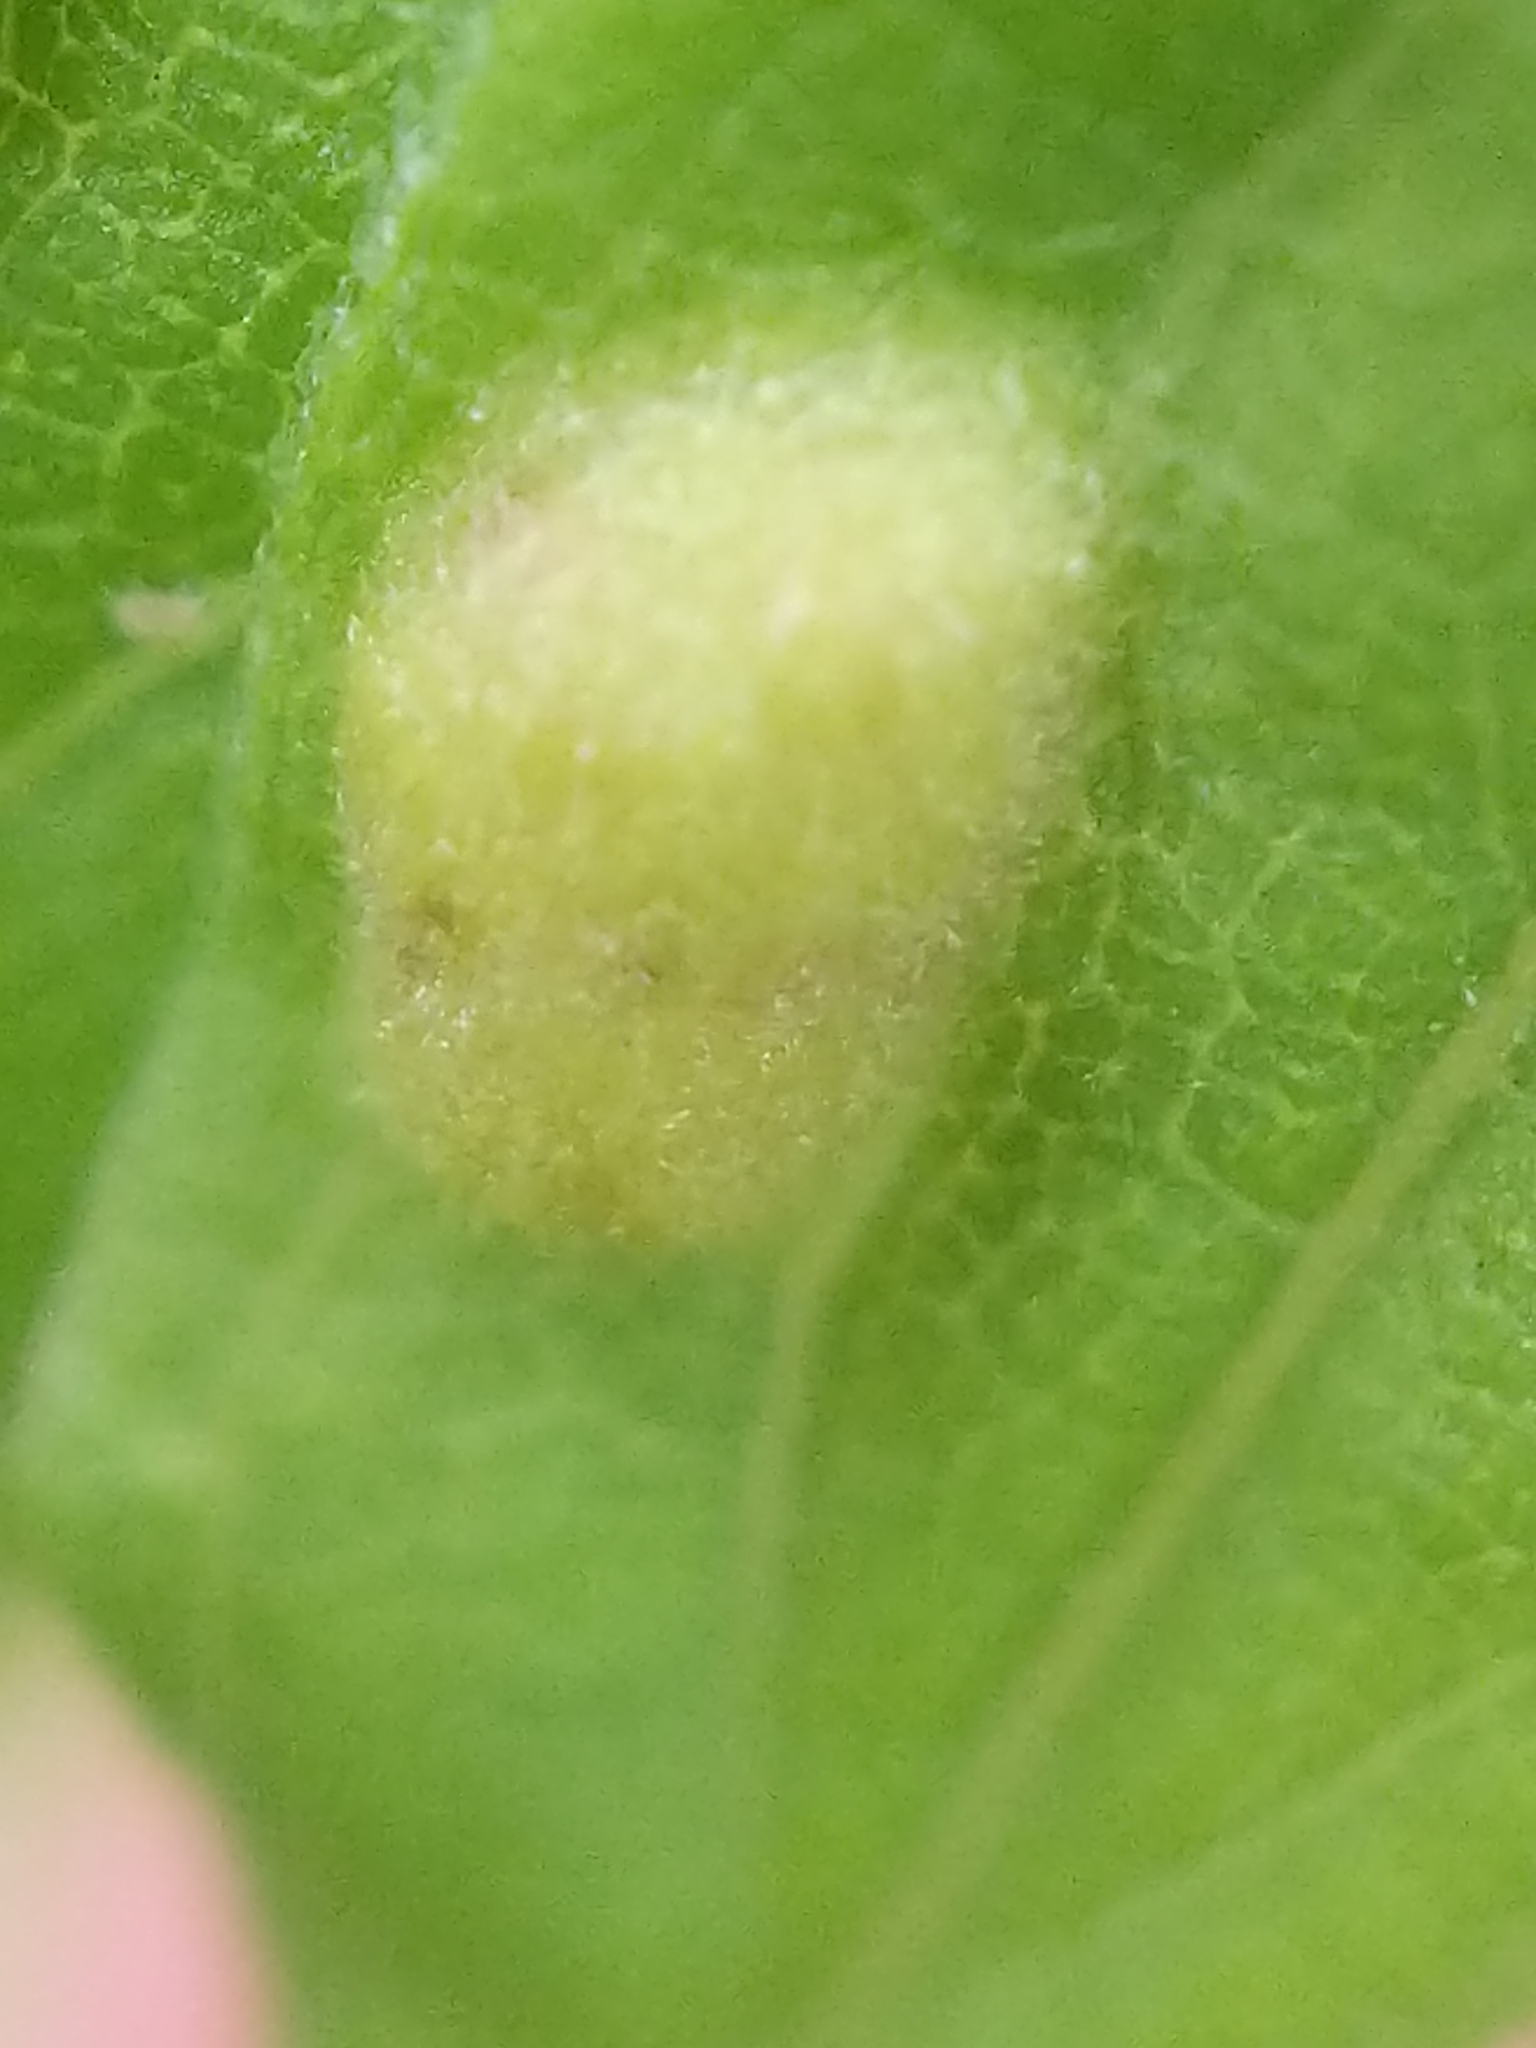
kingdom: Animalia
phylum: Arthropoda
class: Insecta
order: Diptera
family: Cecidomyiidae
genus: Asphondylia
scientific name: Asphondylia solidaginis
